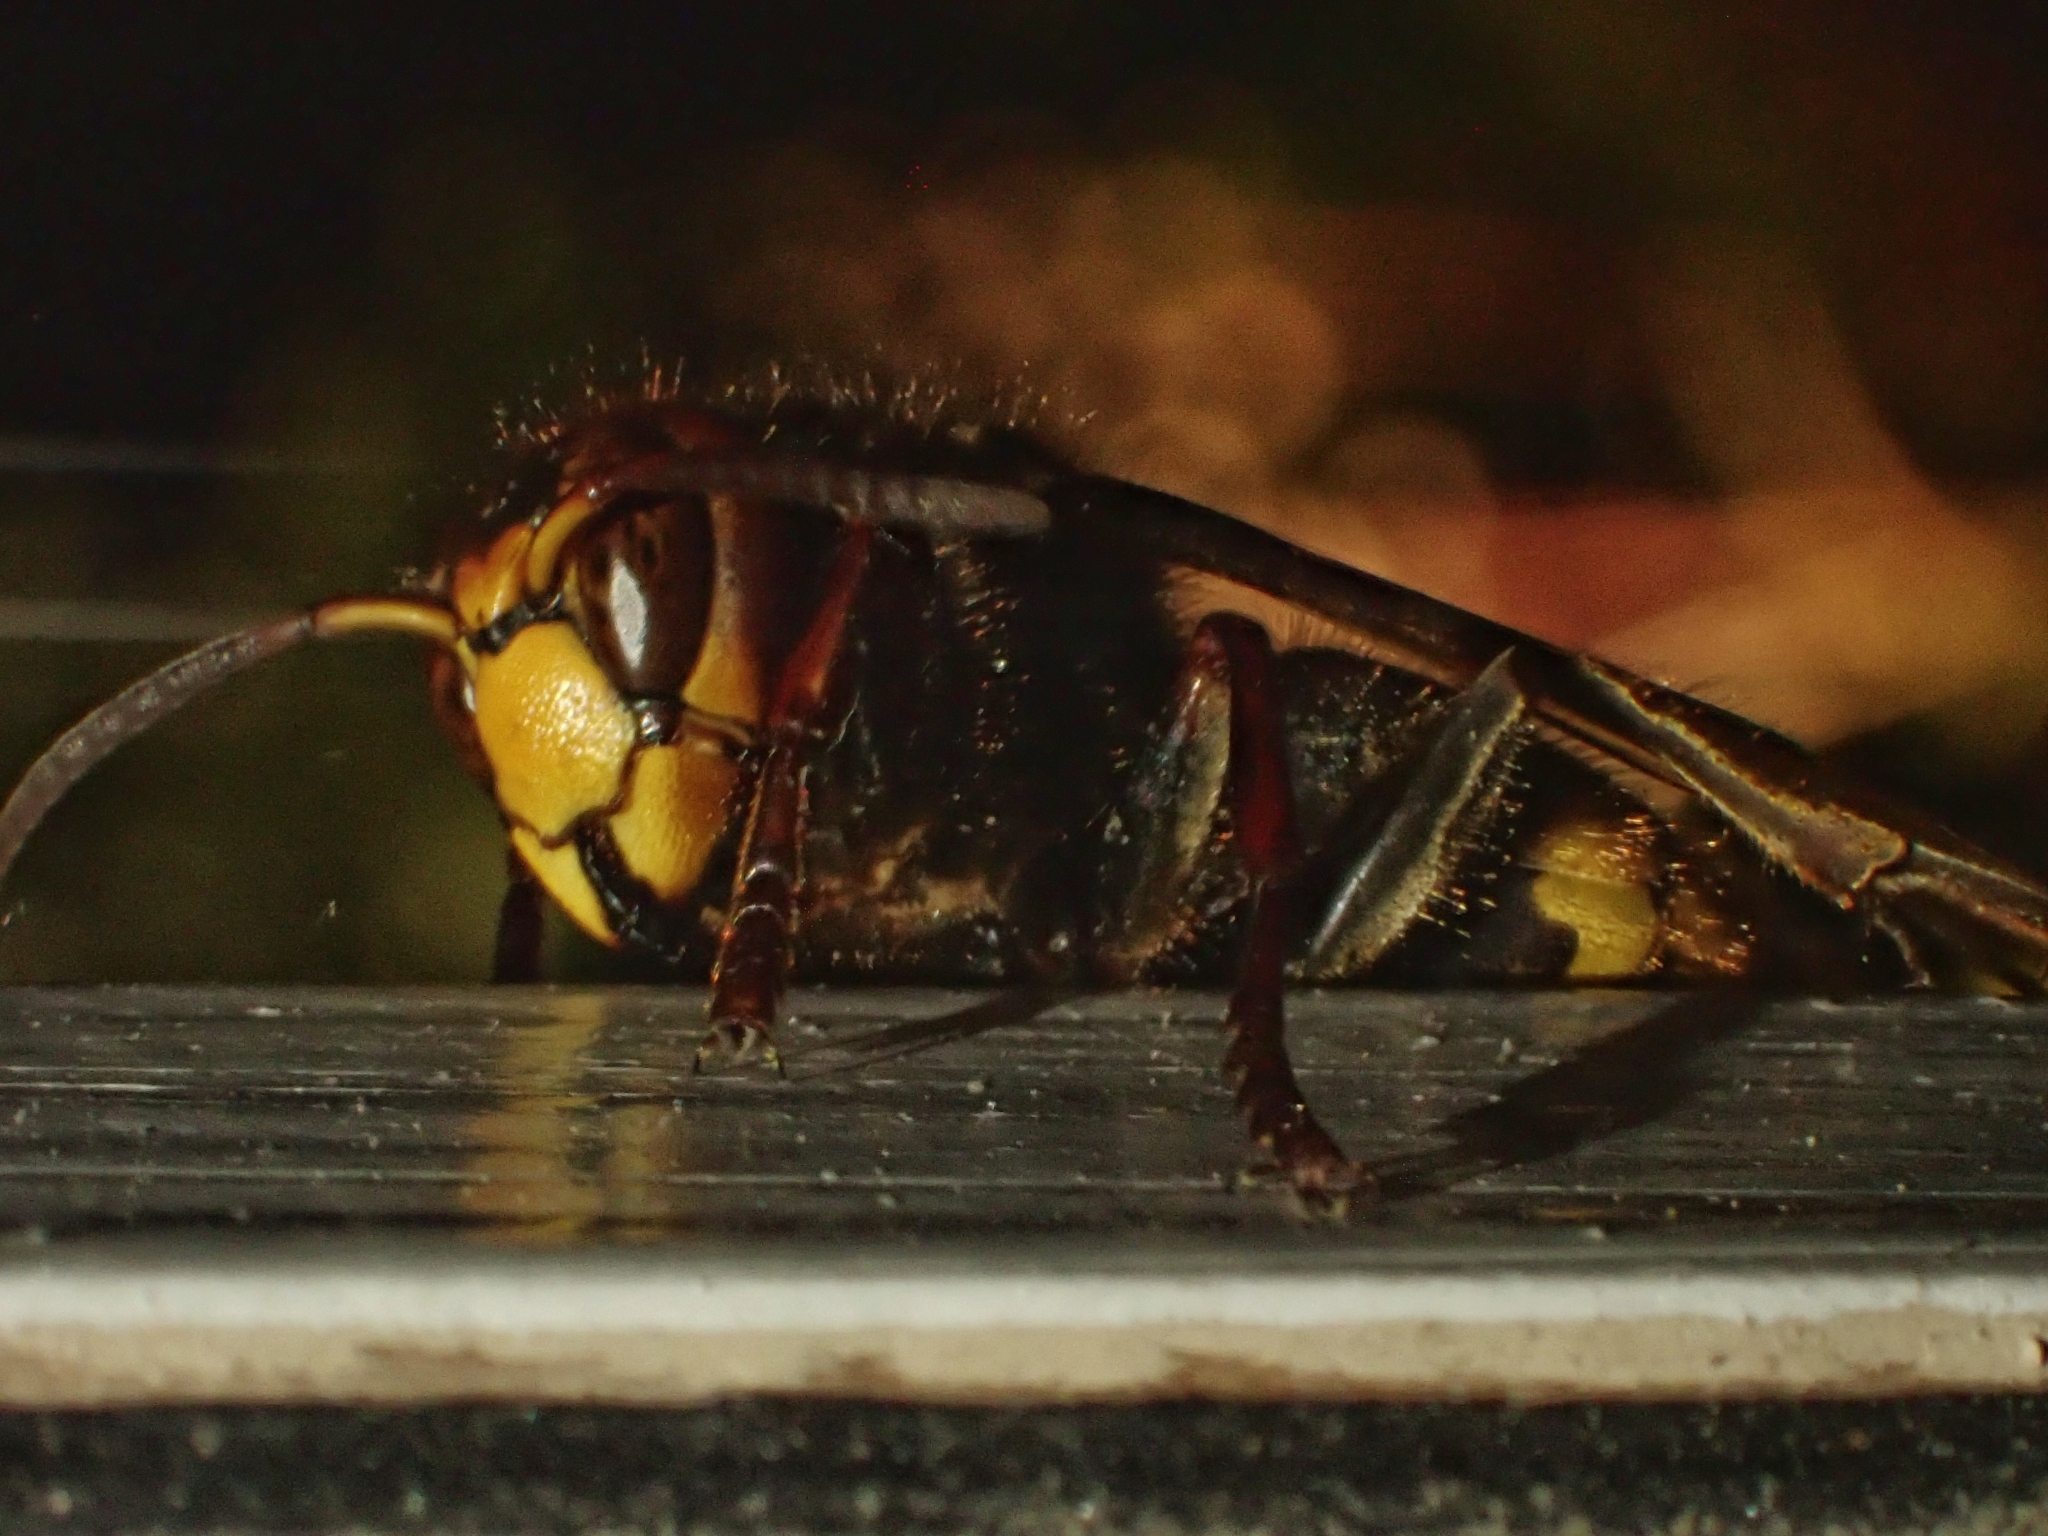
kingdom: Animalia
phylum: Arthropoda
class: Insecta
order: Hymenoptera
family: Vespidae
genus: Vespa
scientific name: Vespa crabro
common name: Hornet
